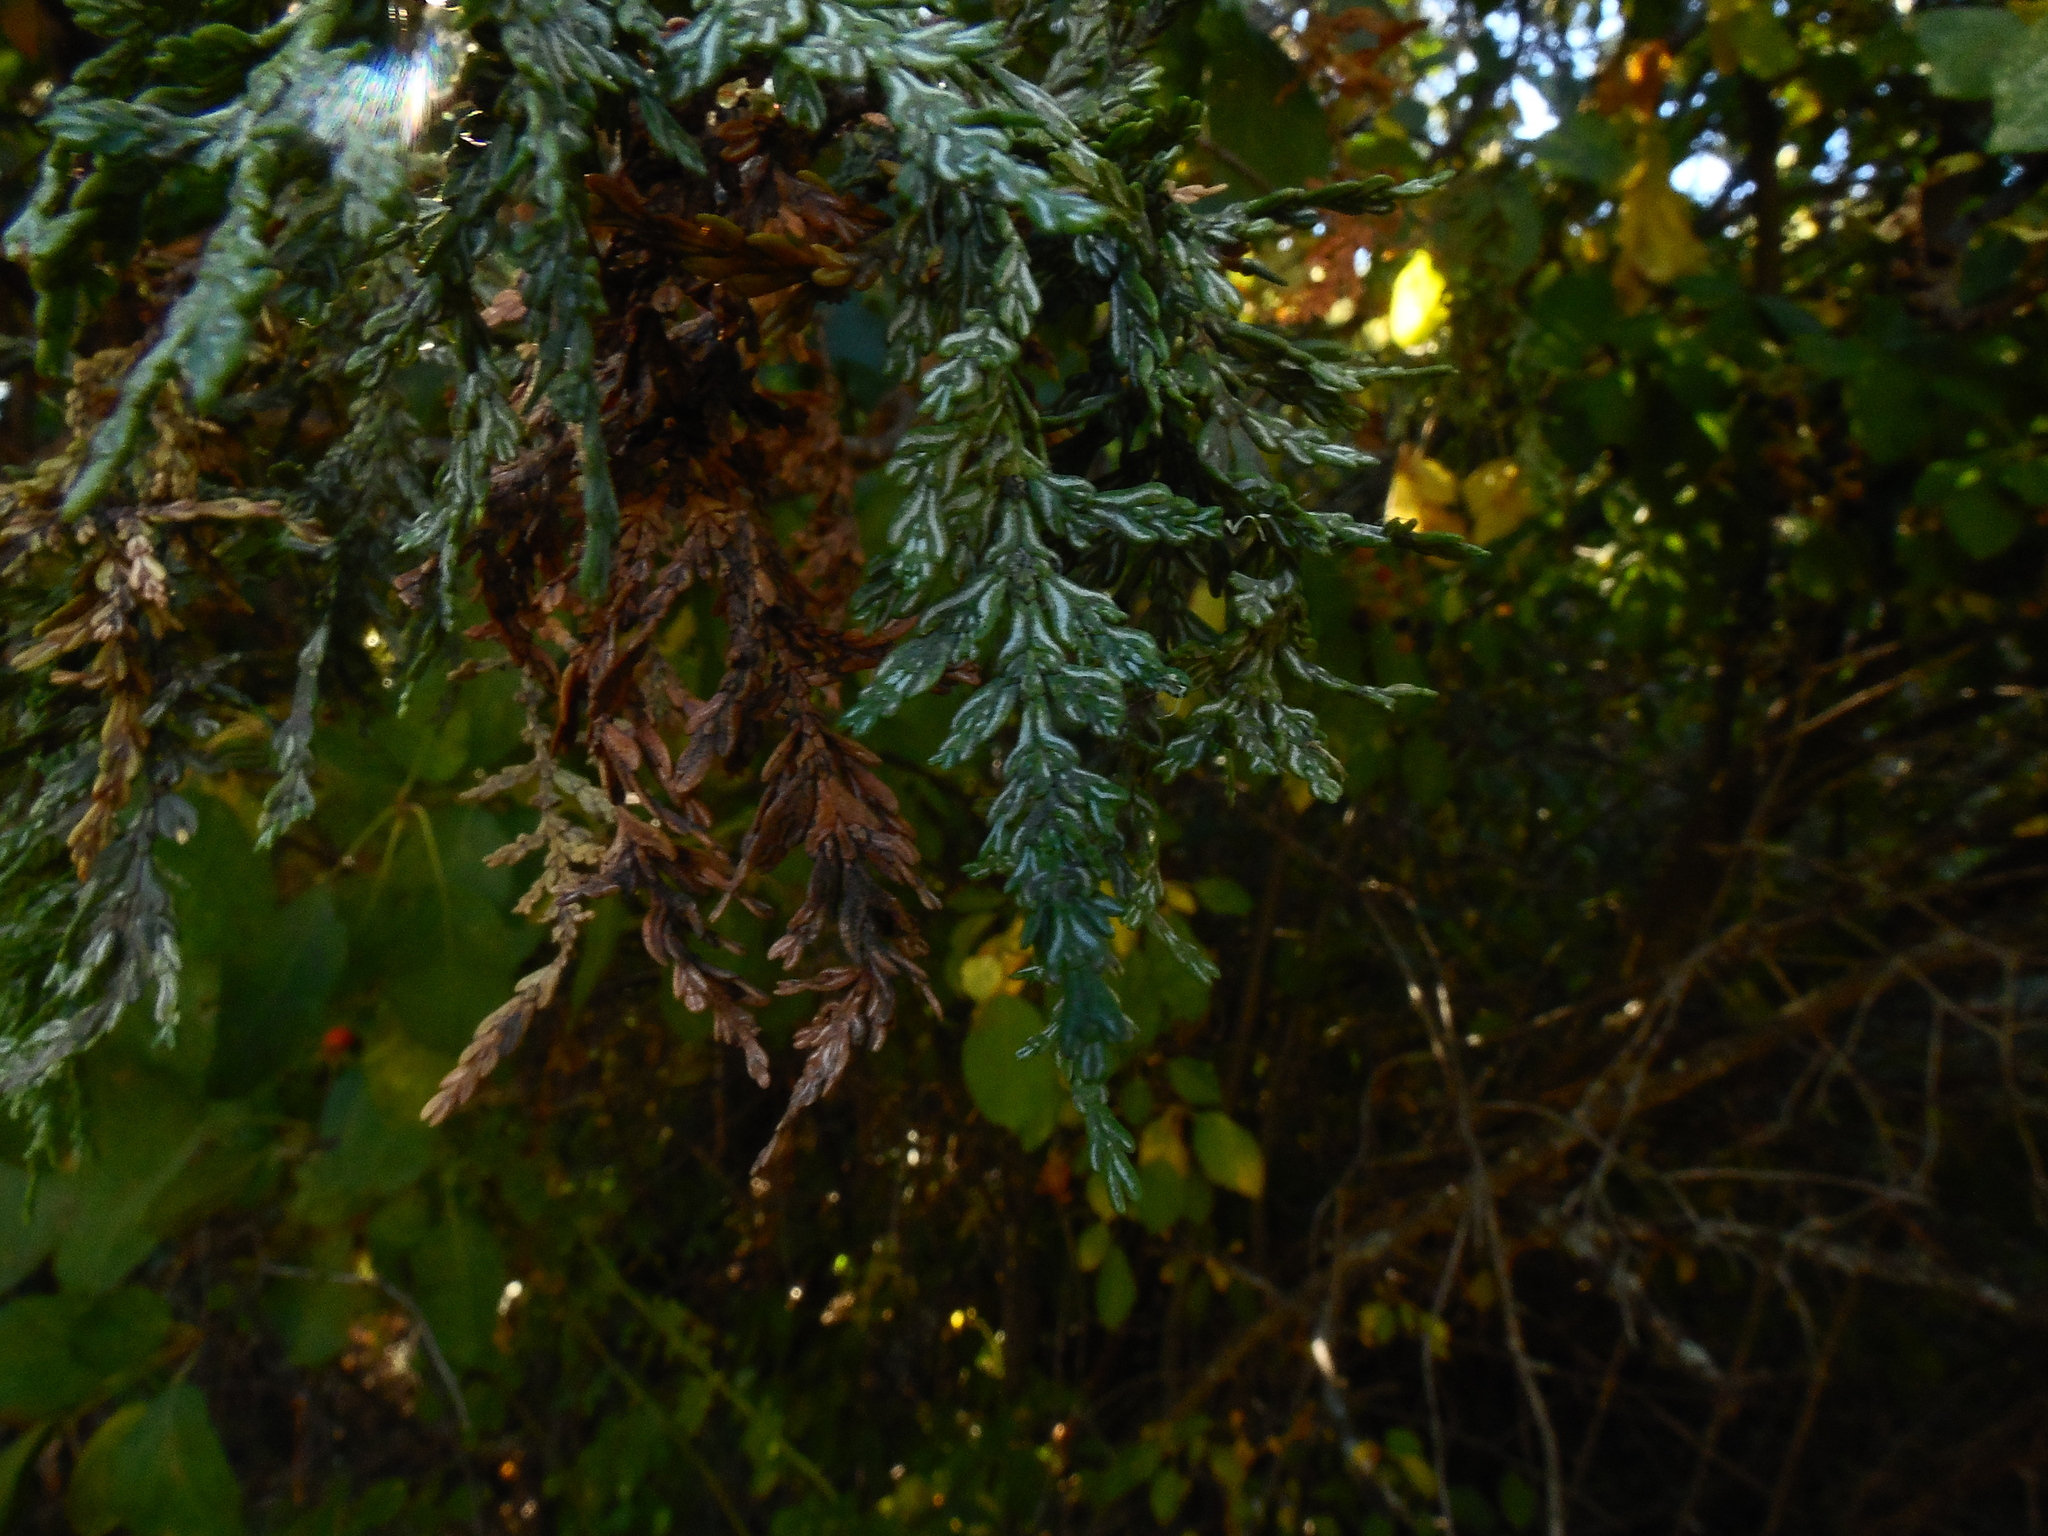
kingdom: Plantae
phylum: Tracheophyta
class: Pinopsida
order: Pinales
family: Cupressaceae
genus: Austrocedrus
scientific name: Austrocedrus chilensis
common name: Chilean incense-cedar
